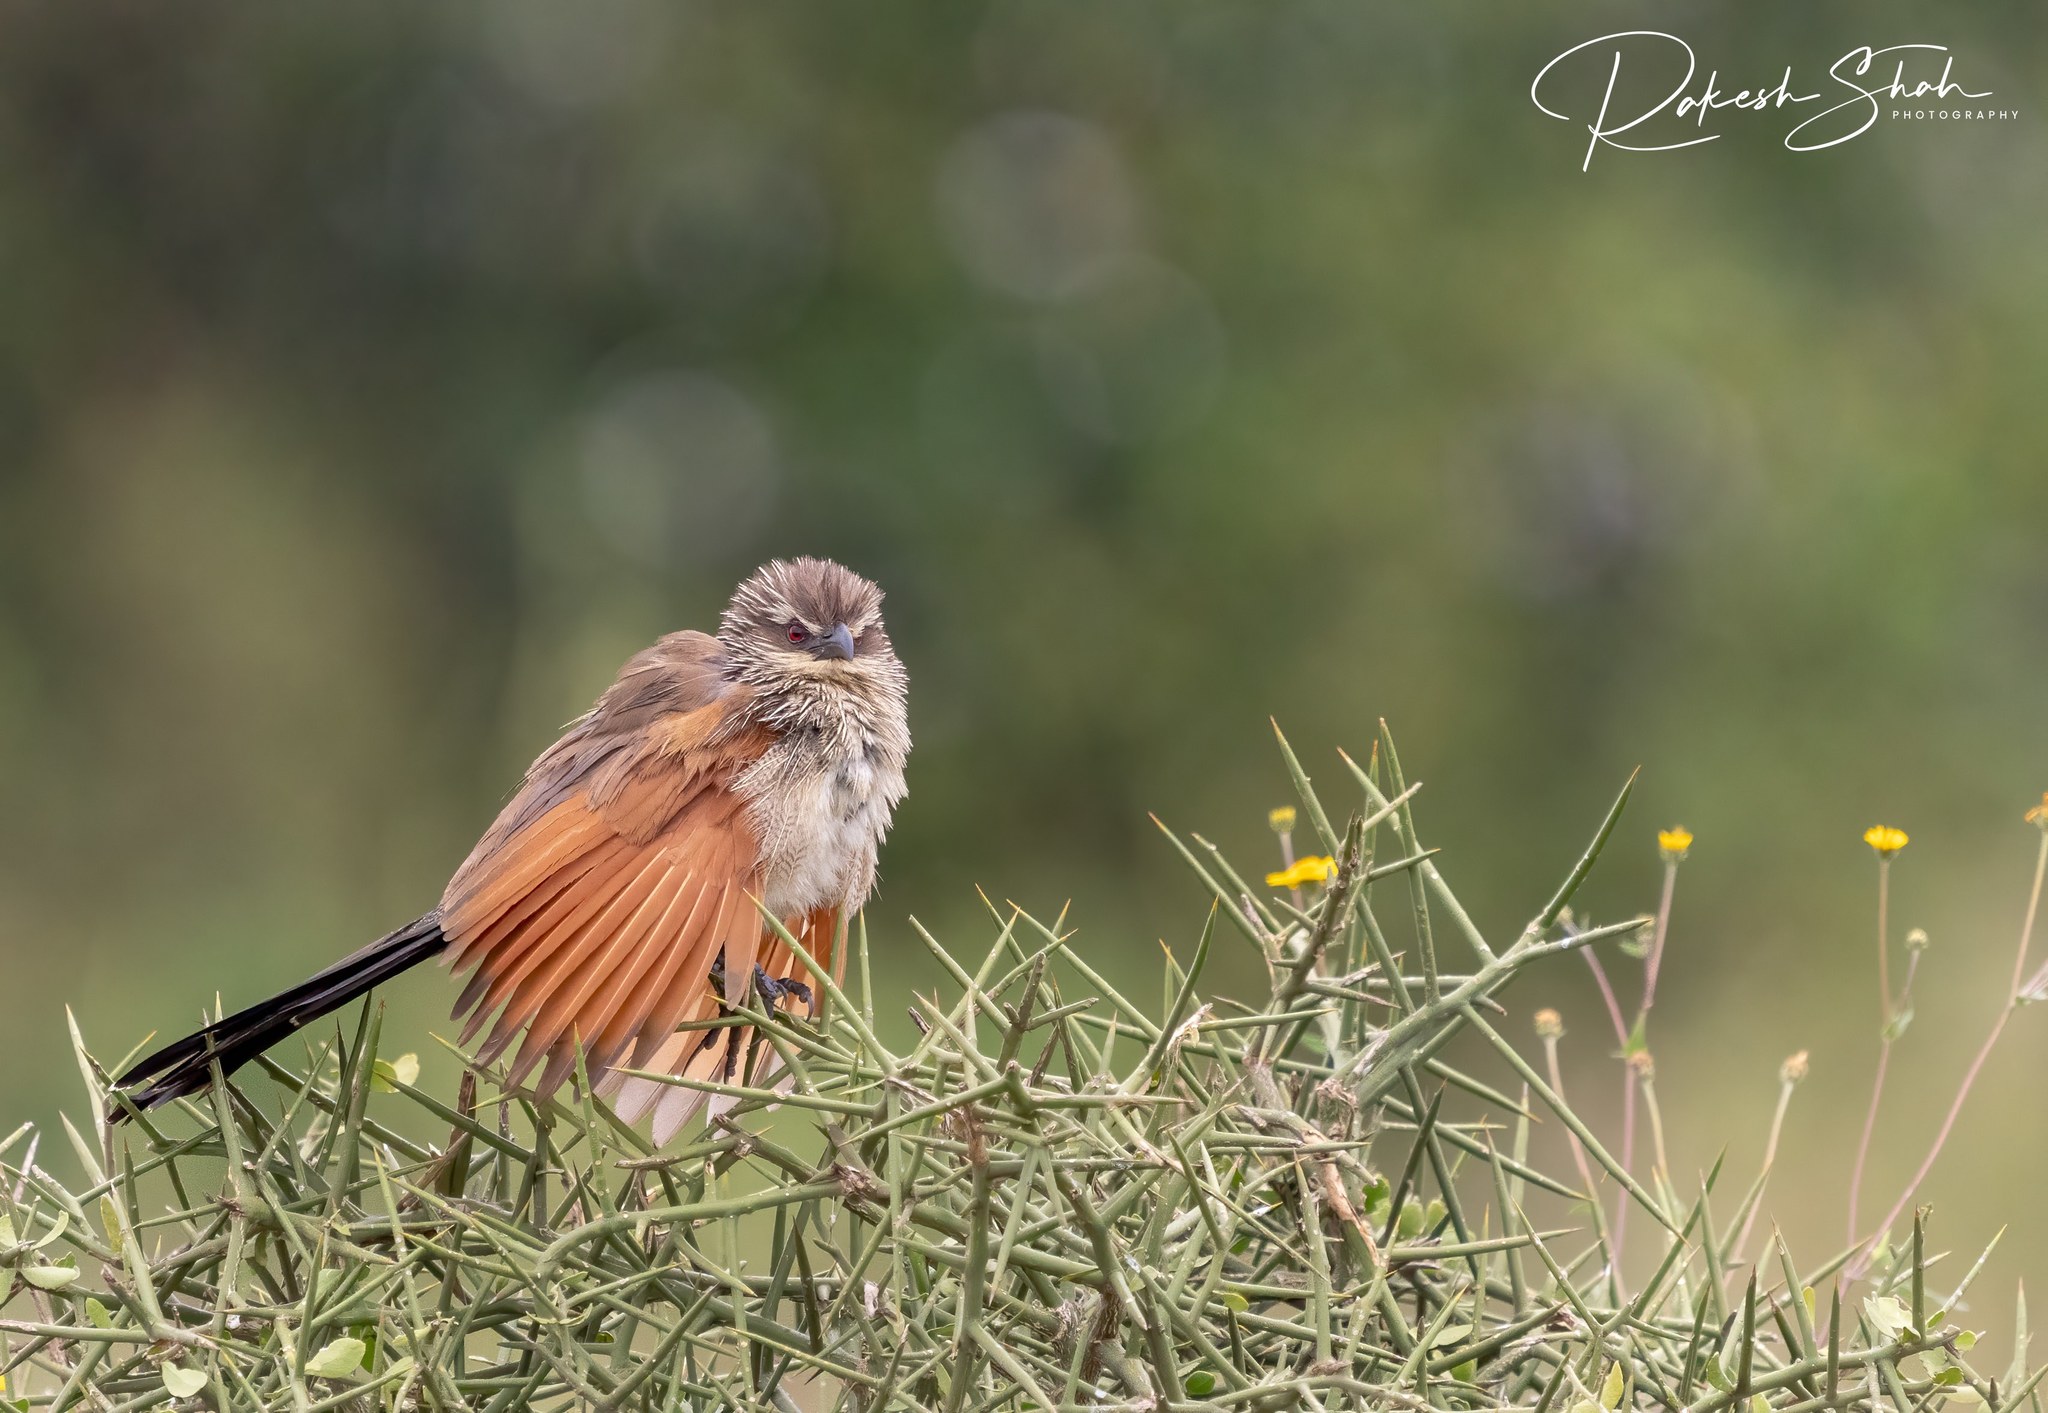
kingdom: Animalia
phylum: Chordata
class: Aves
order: Cuculiformes
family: Cuculidae
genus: Centropus
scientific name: Centropus superciliosus
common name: White-browed coucal
